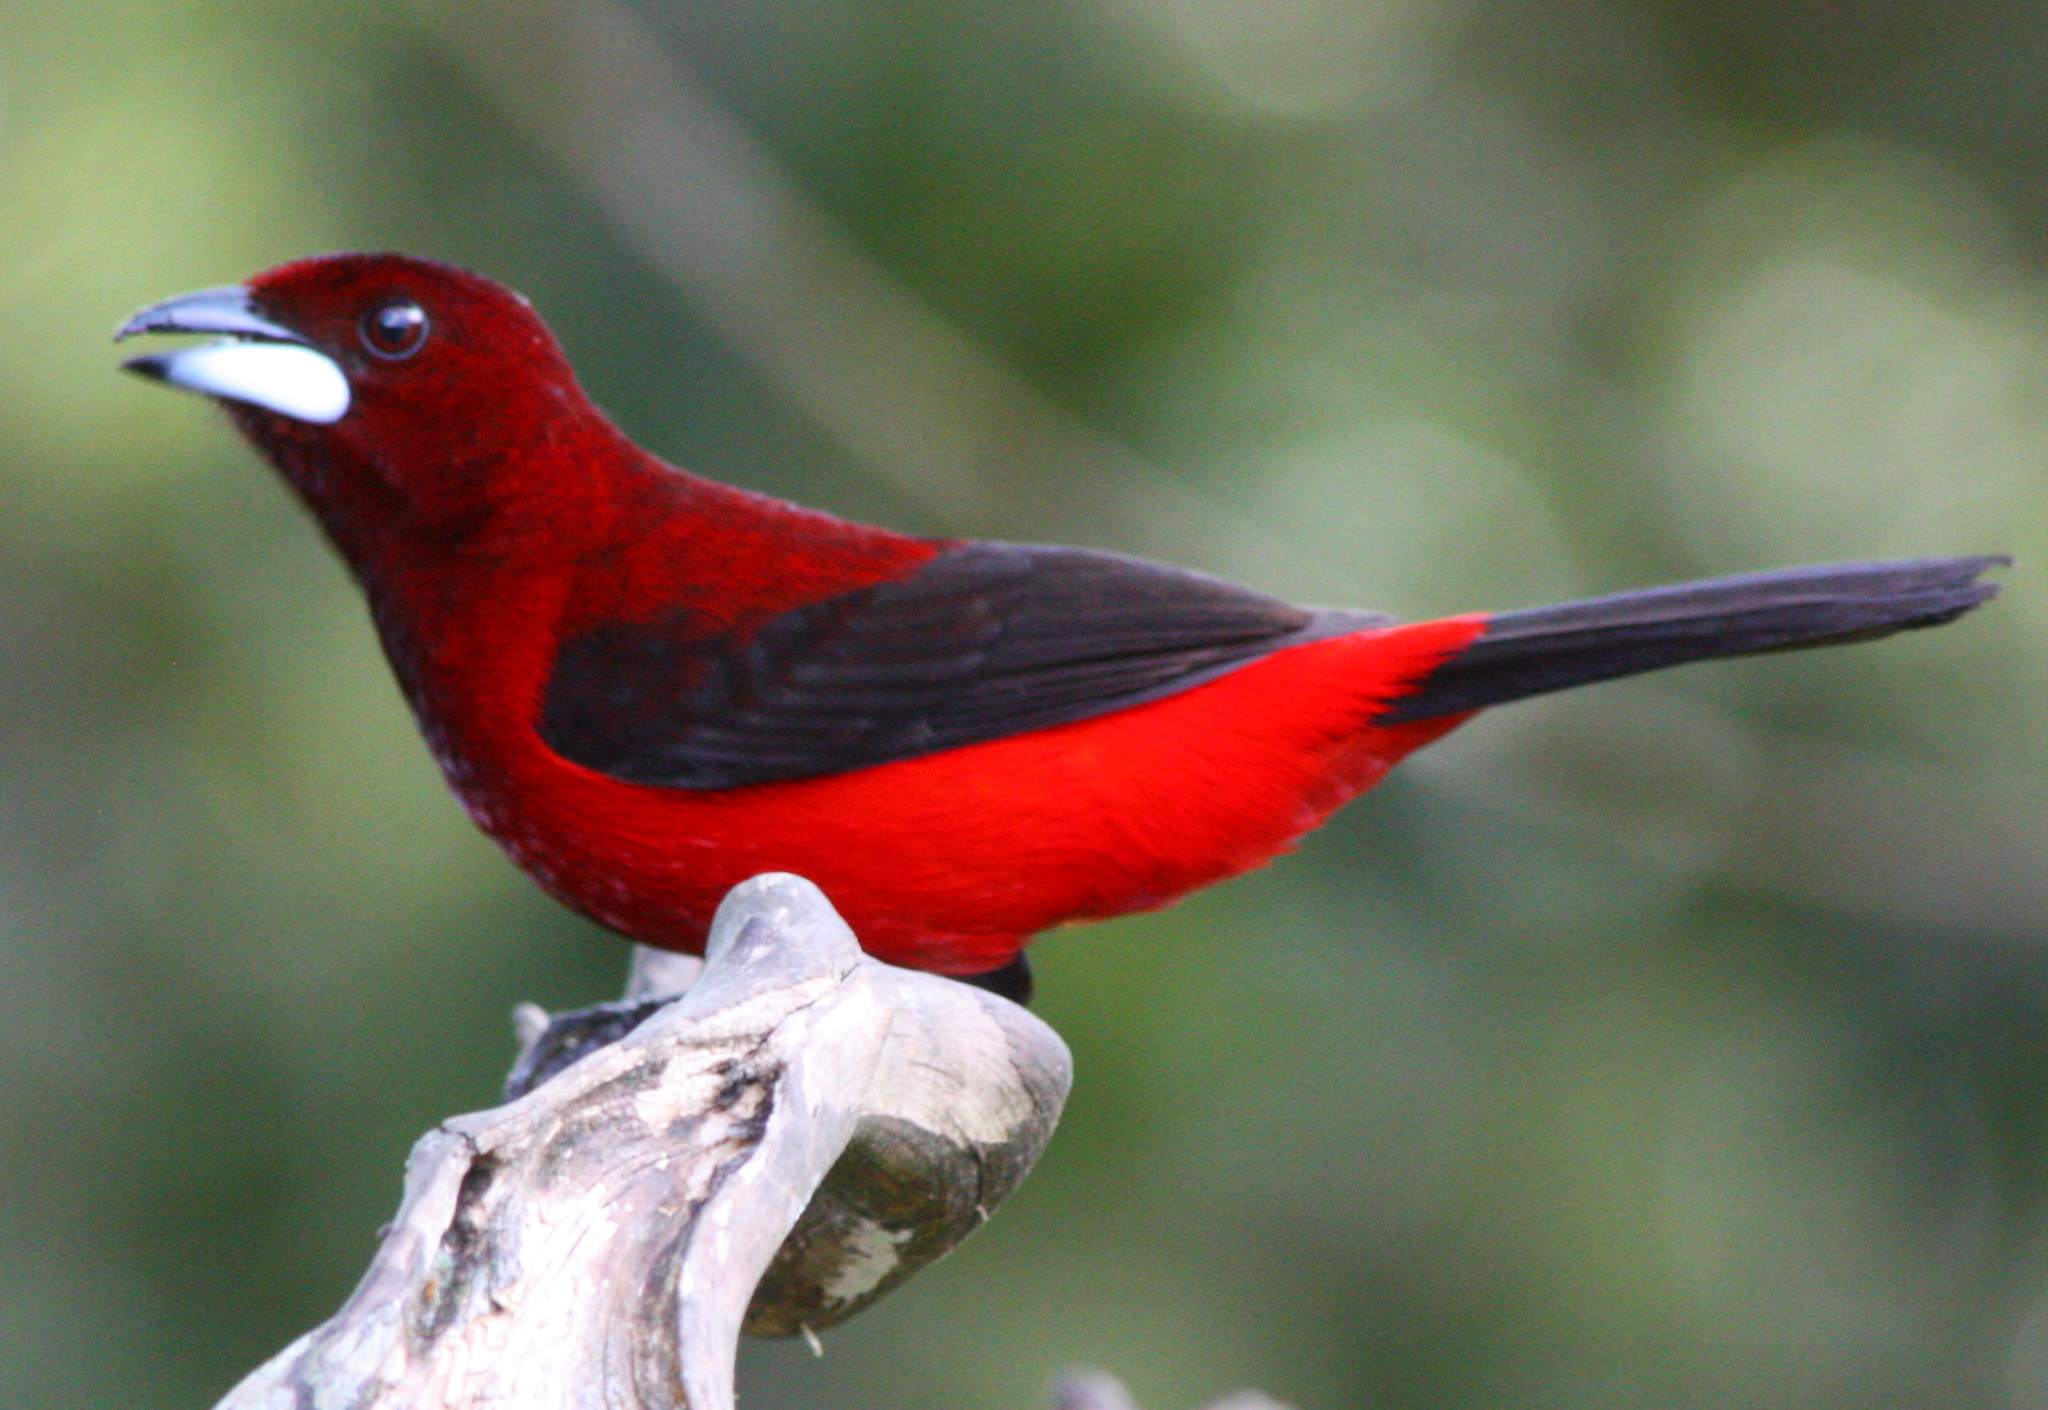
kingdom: Animalia
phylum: Chordata
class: Aves
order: Passeriformes
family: Thraupidae
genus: Ramphocelus
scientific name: Ramphocelus dimidiatus
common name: Crimson-backed tanager
